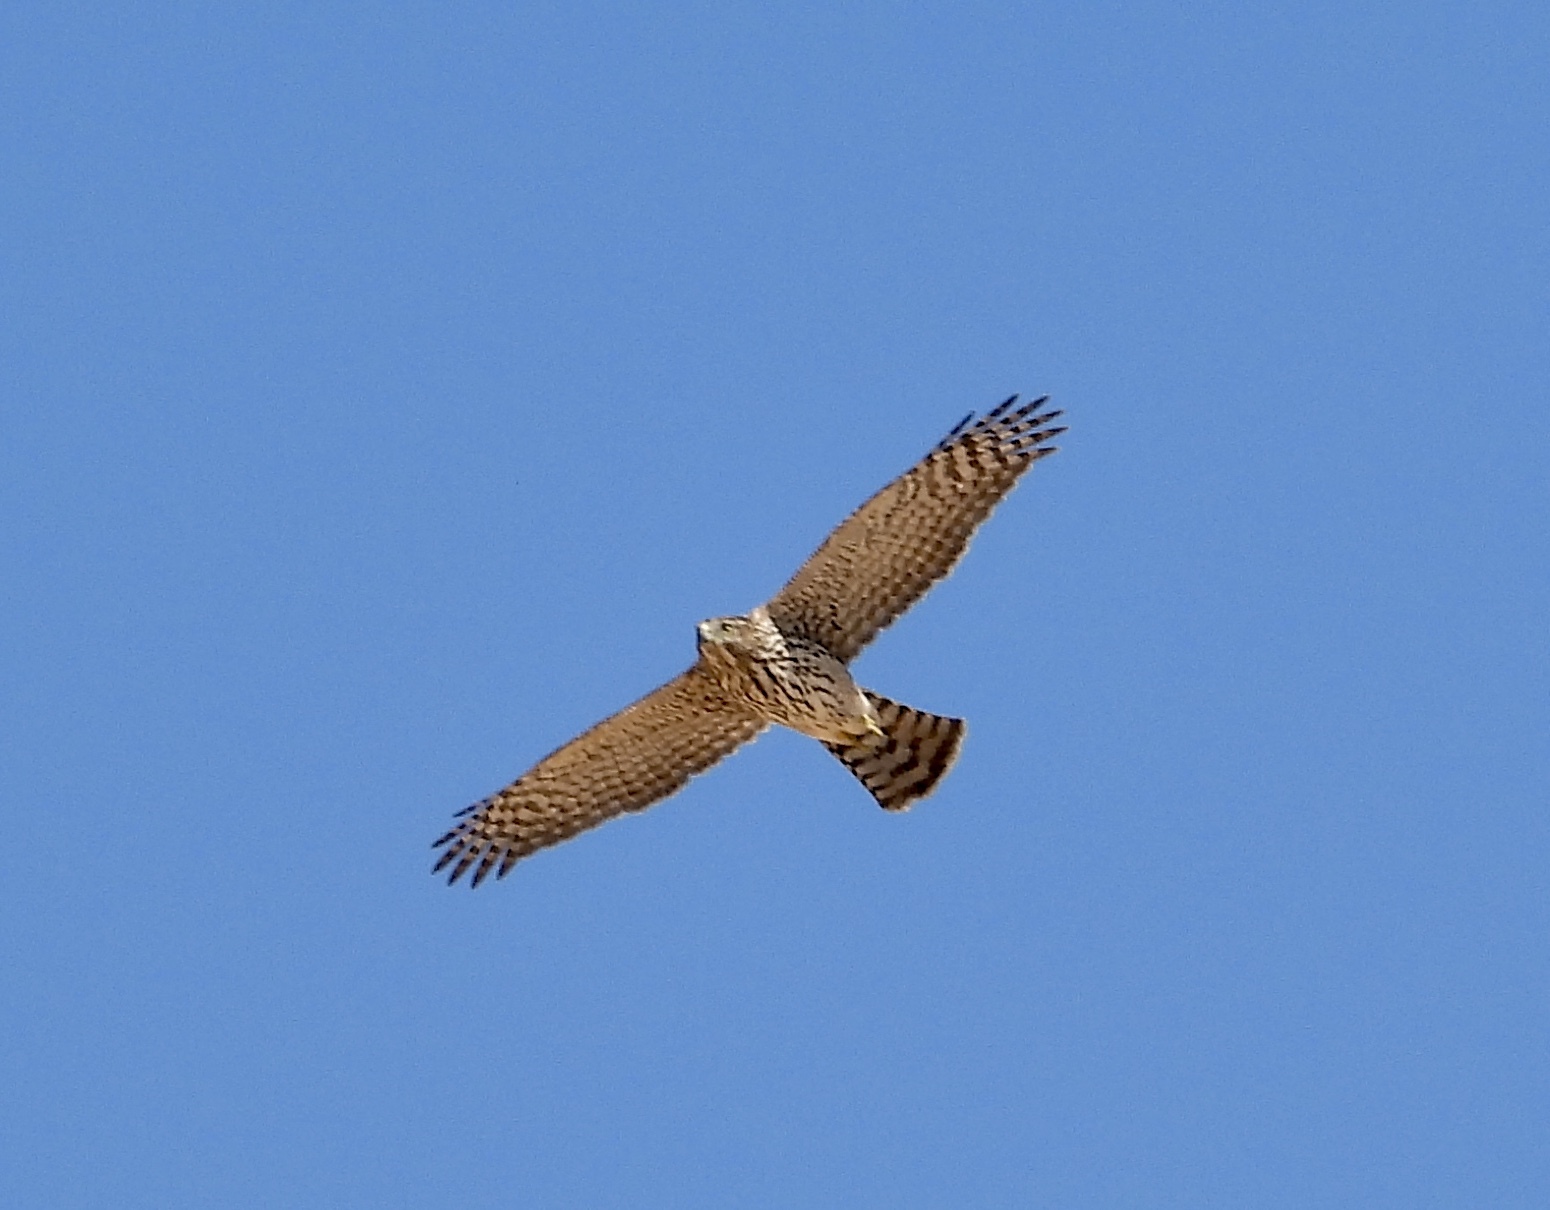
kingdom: Animalia
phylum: Chordata
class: Aves
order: Accipitriformes
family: Accipitridae
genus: Accipiter
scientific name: Accipiter cooperii
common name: Cooper's hawk
